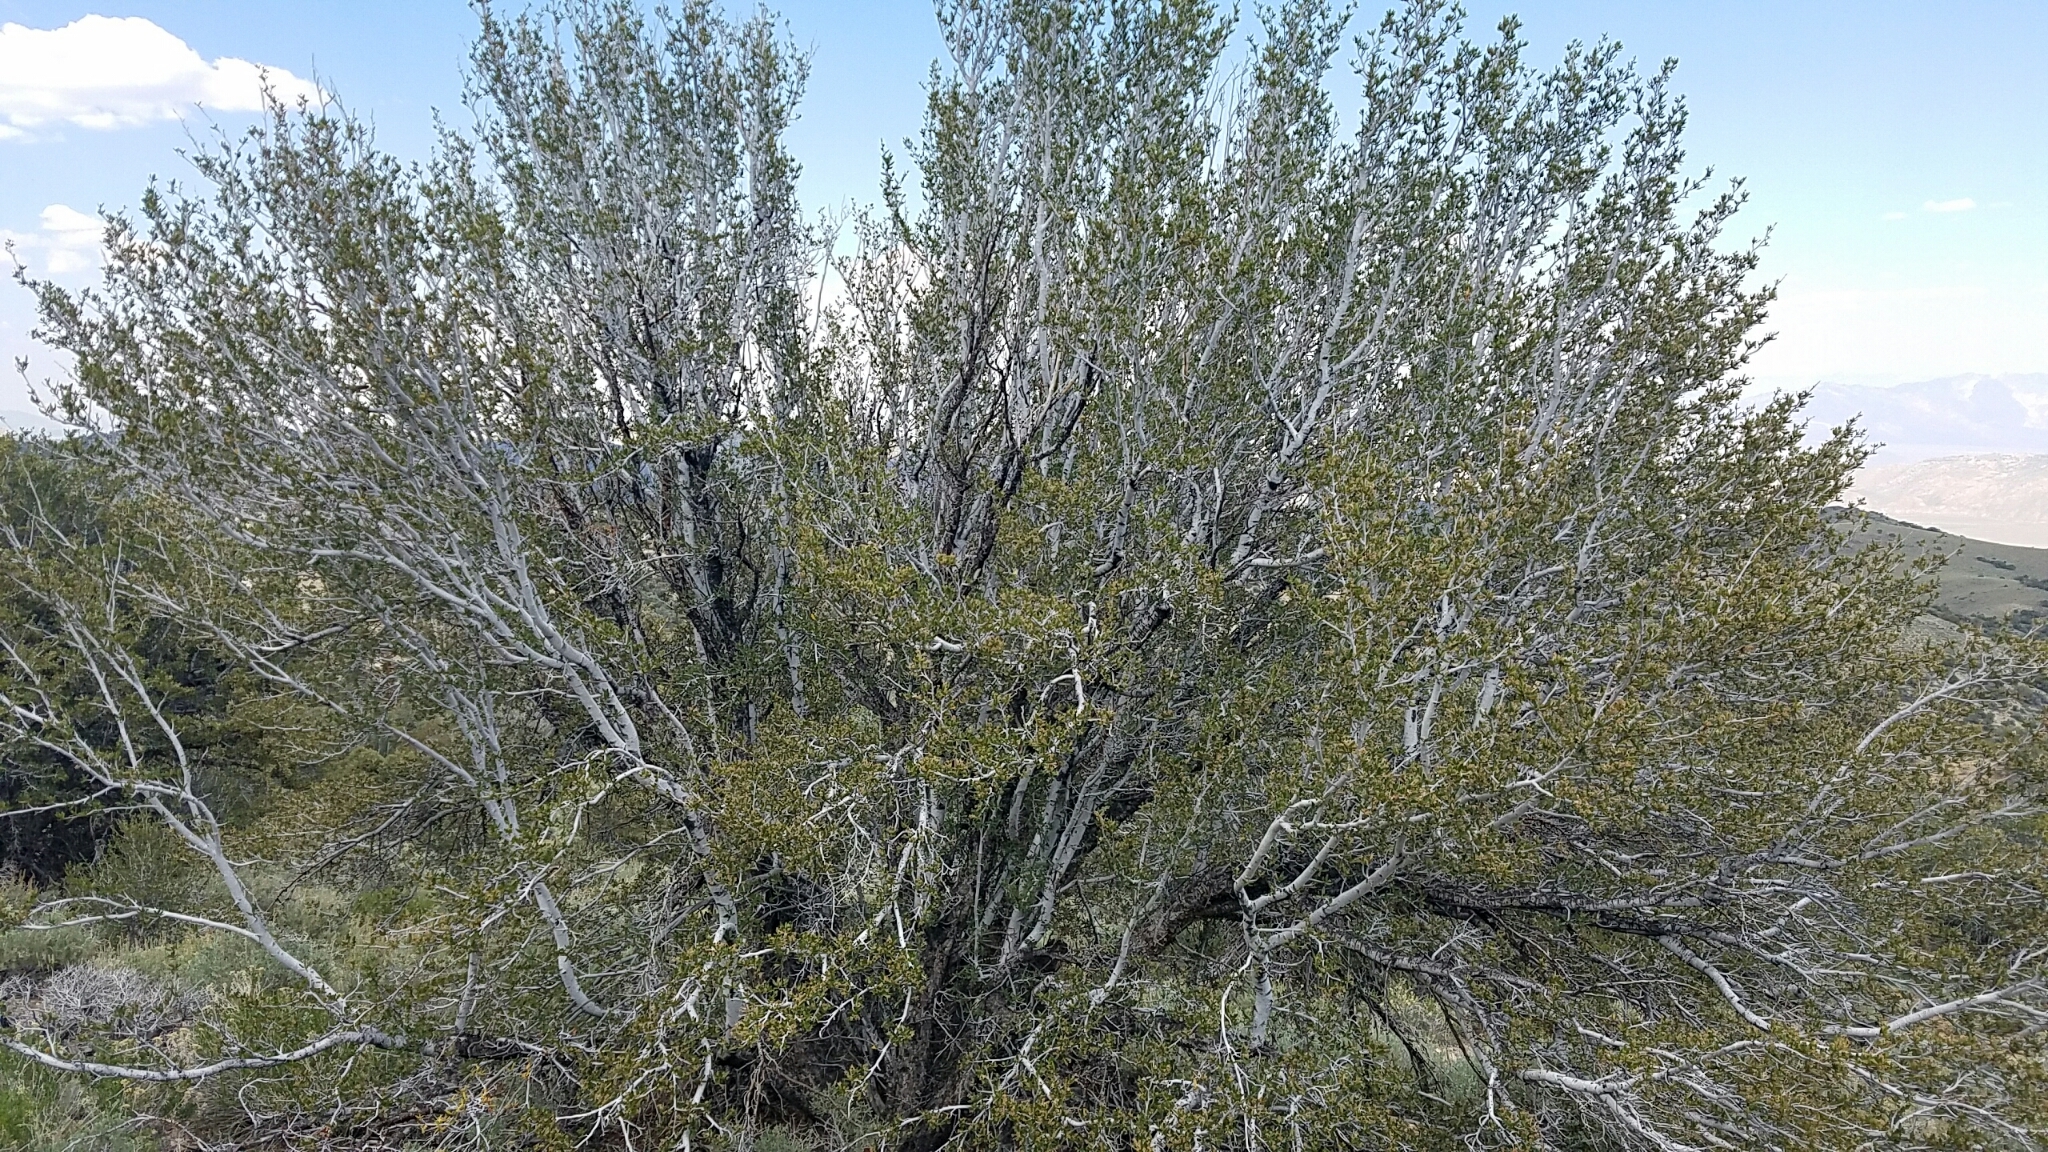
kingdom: Plantae
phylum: Tracheophyta
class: Magnoliopsida
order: Rosales
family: Rosaceae
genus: Cercocarpus
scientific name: Cercocarpus ledifolius
